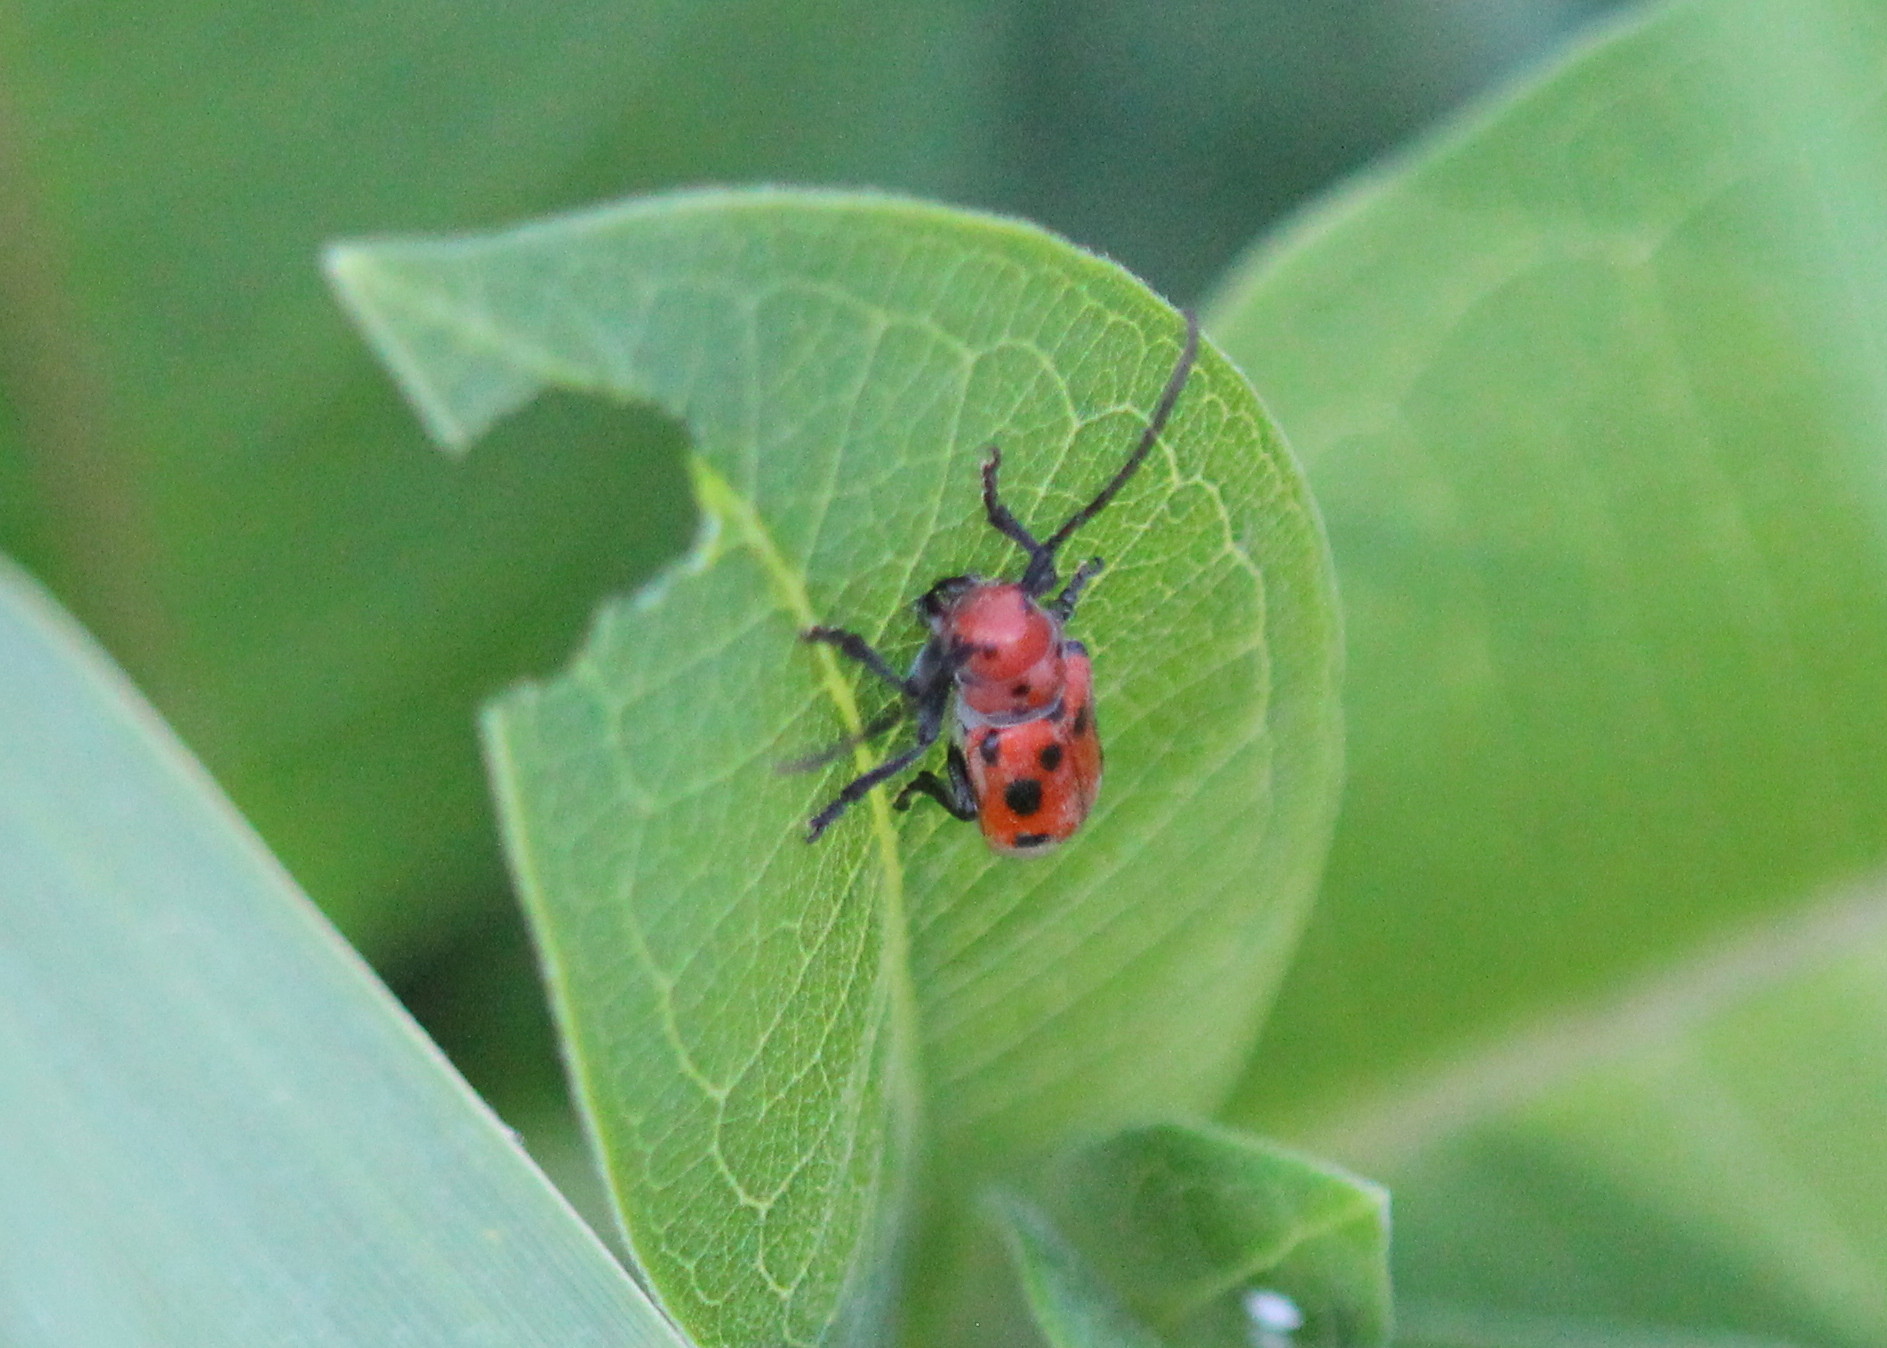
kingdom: Animalia
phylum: Arthropoda
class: Insecta
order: Coleoptera
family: Cerambycidae
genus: Tetraopes
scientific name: Tetraopes tetrophthalmus
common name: Red milkweed beetle
